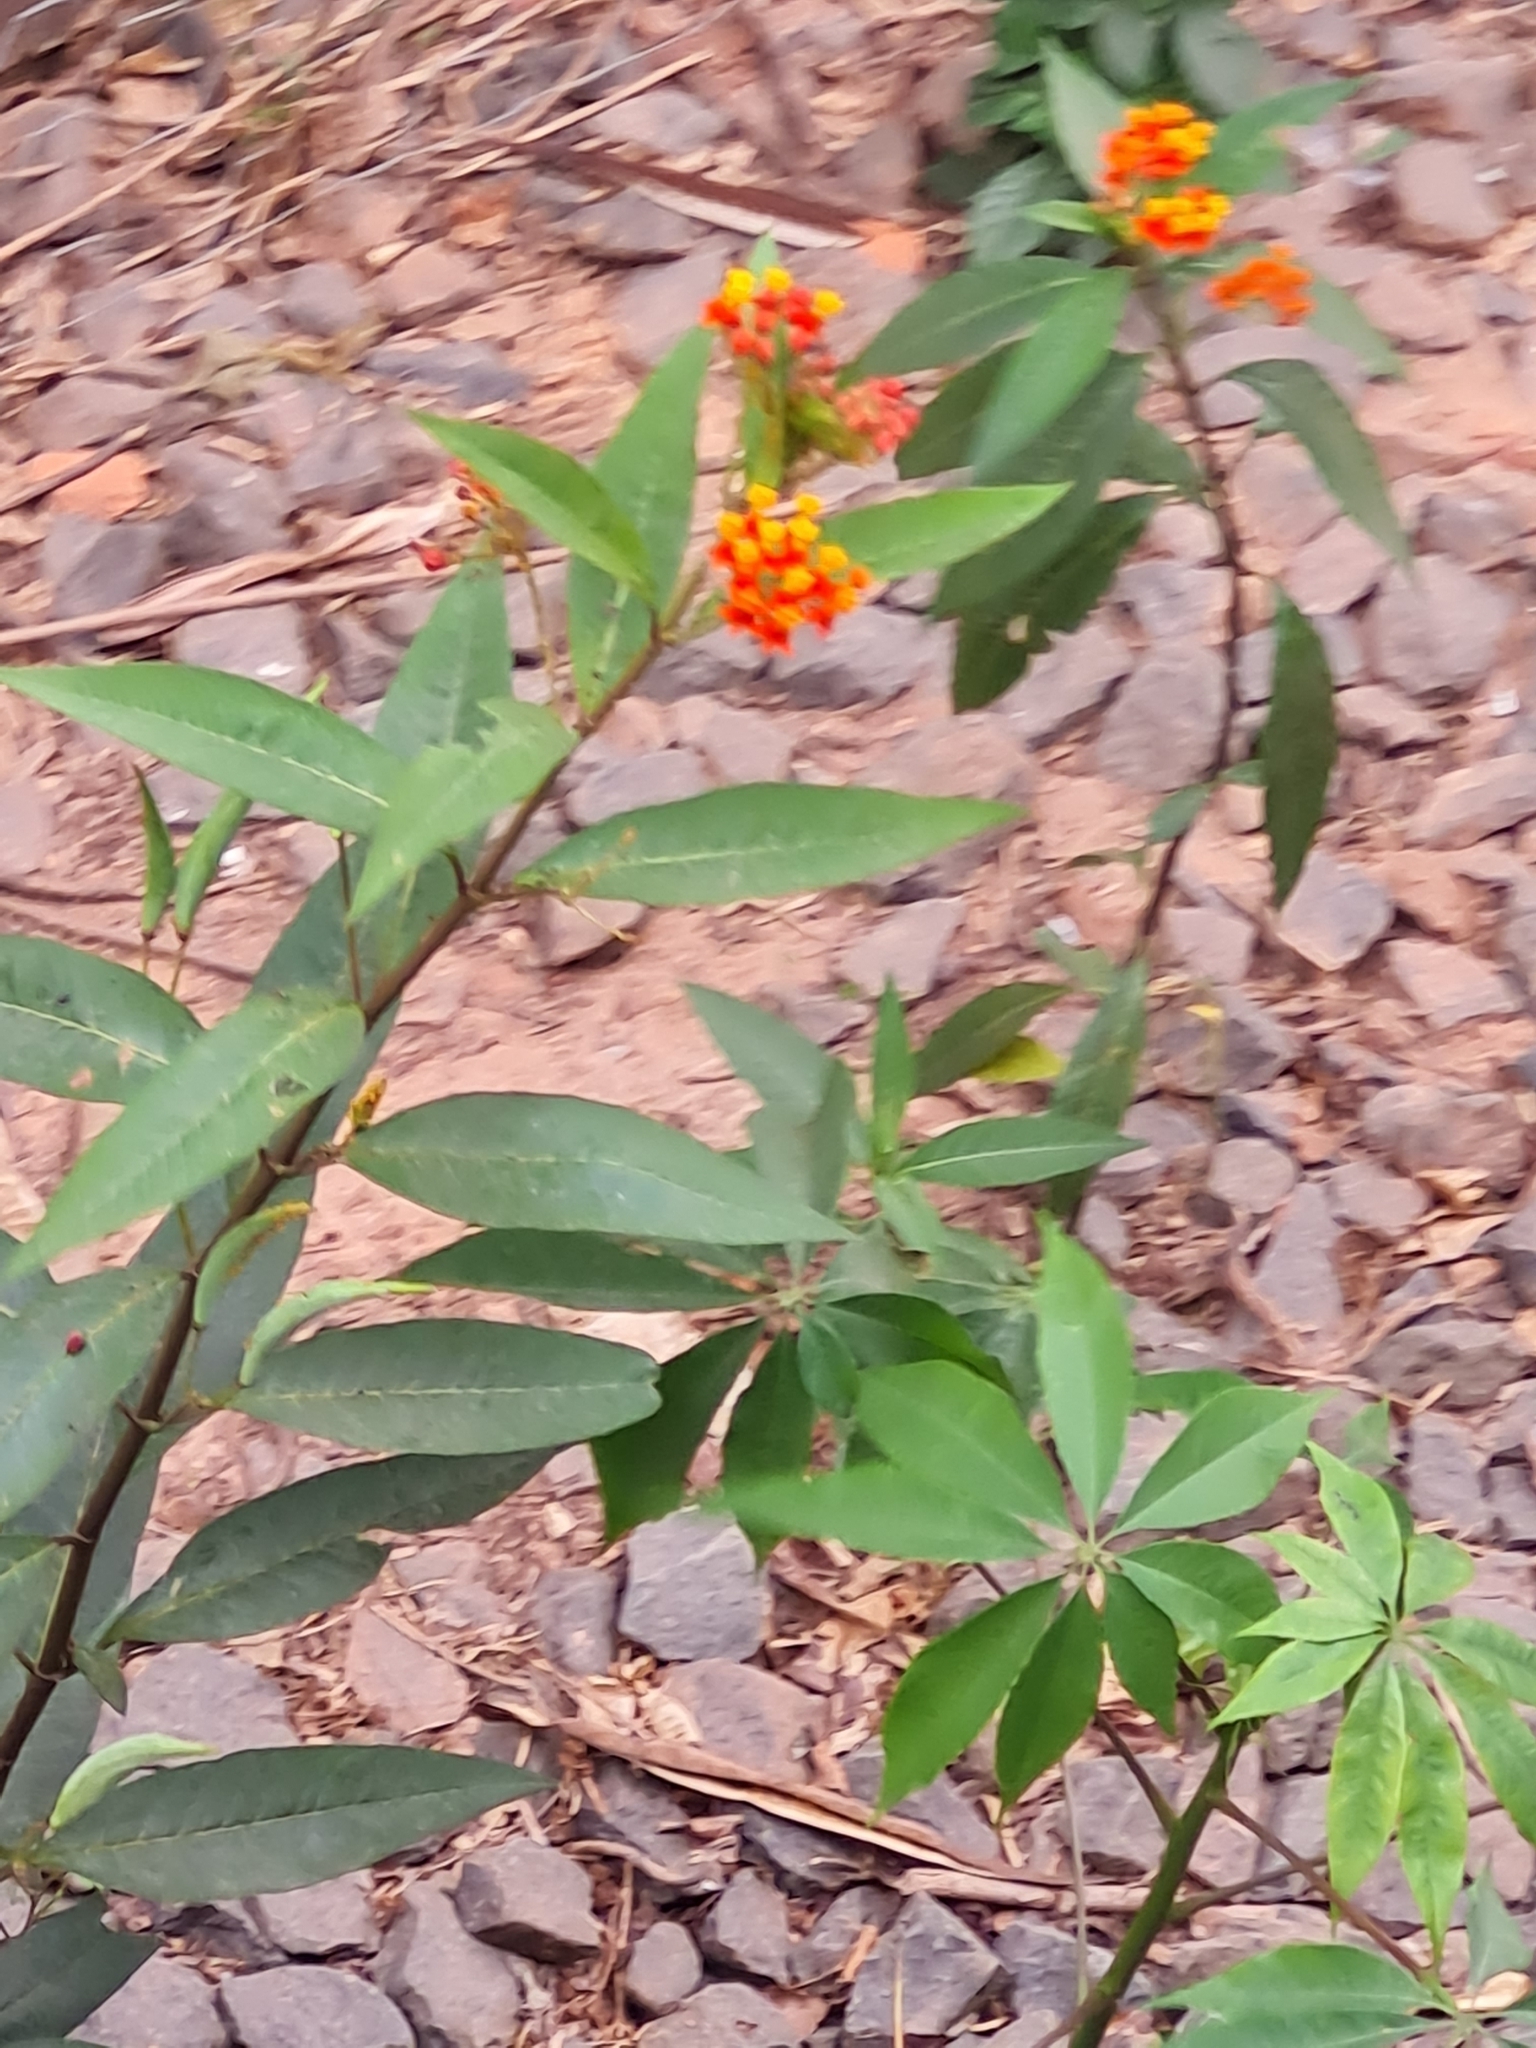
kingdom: Plantae
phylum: Tracheophyta
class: Magnoliopsida
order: Gentianales
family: Apocynaceae
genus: Asclepias
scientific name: Asclepias curassavica
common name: Bloodflower
